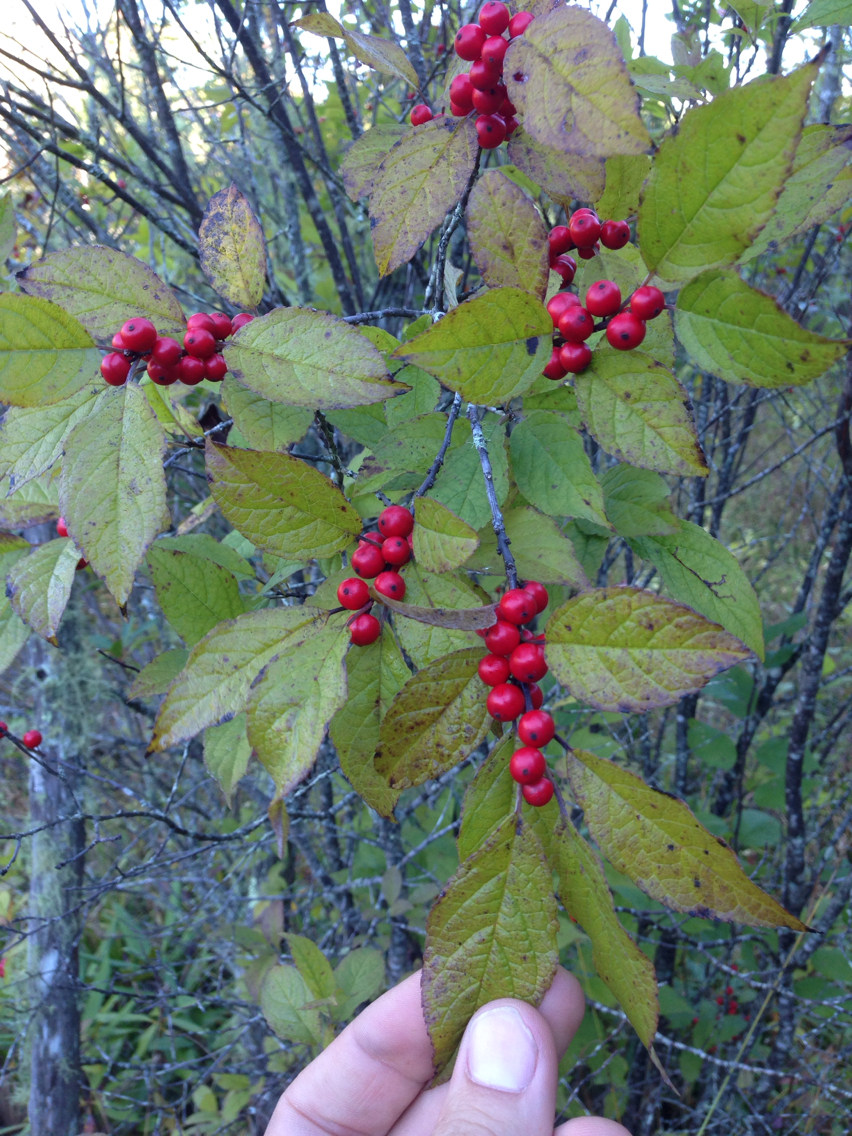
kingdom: Plantae
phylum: Tracheophyta
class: Magnoliopsida
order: Aquifoliales
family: Aquifoliaceae
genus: Ilex
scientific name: Ilex verticillata
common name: Virginia winterberry
